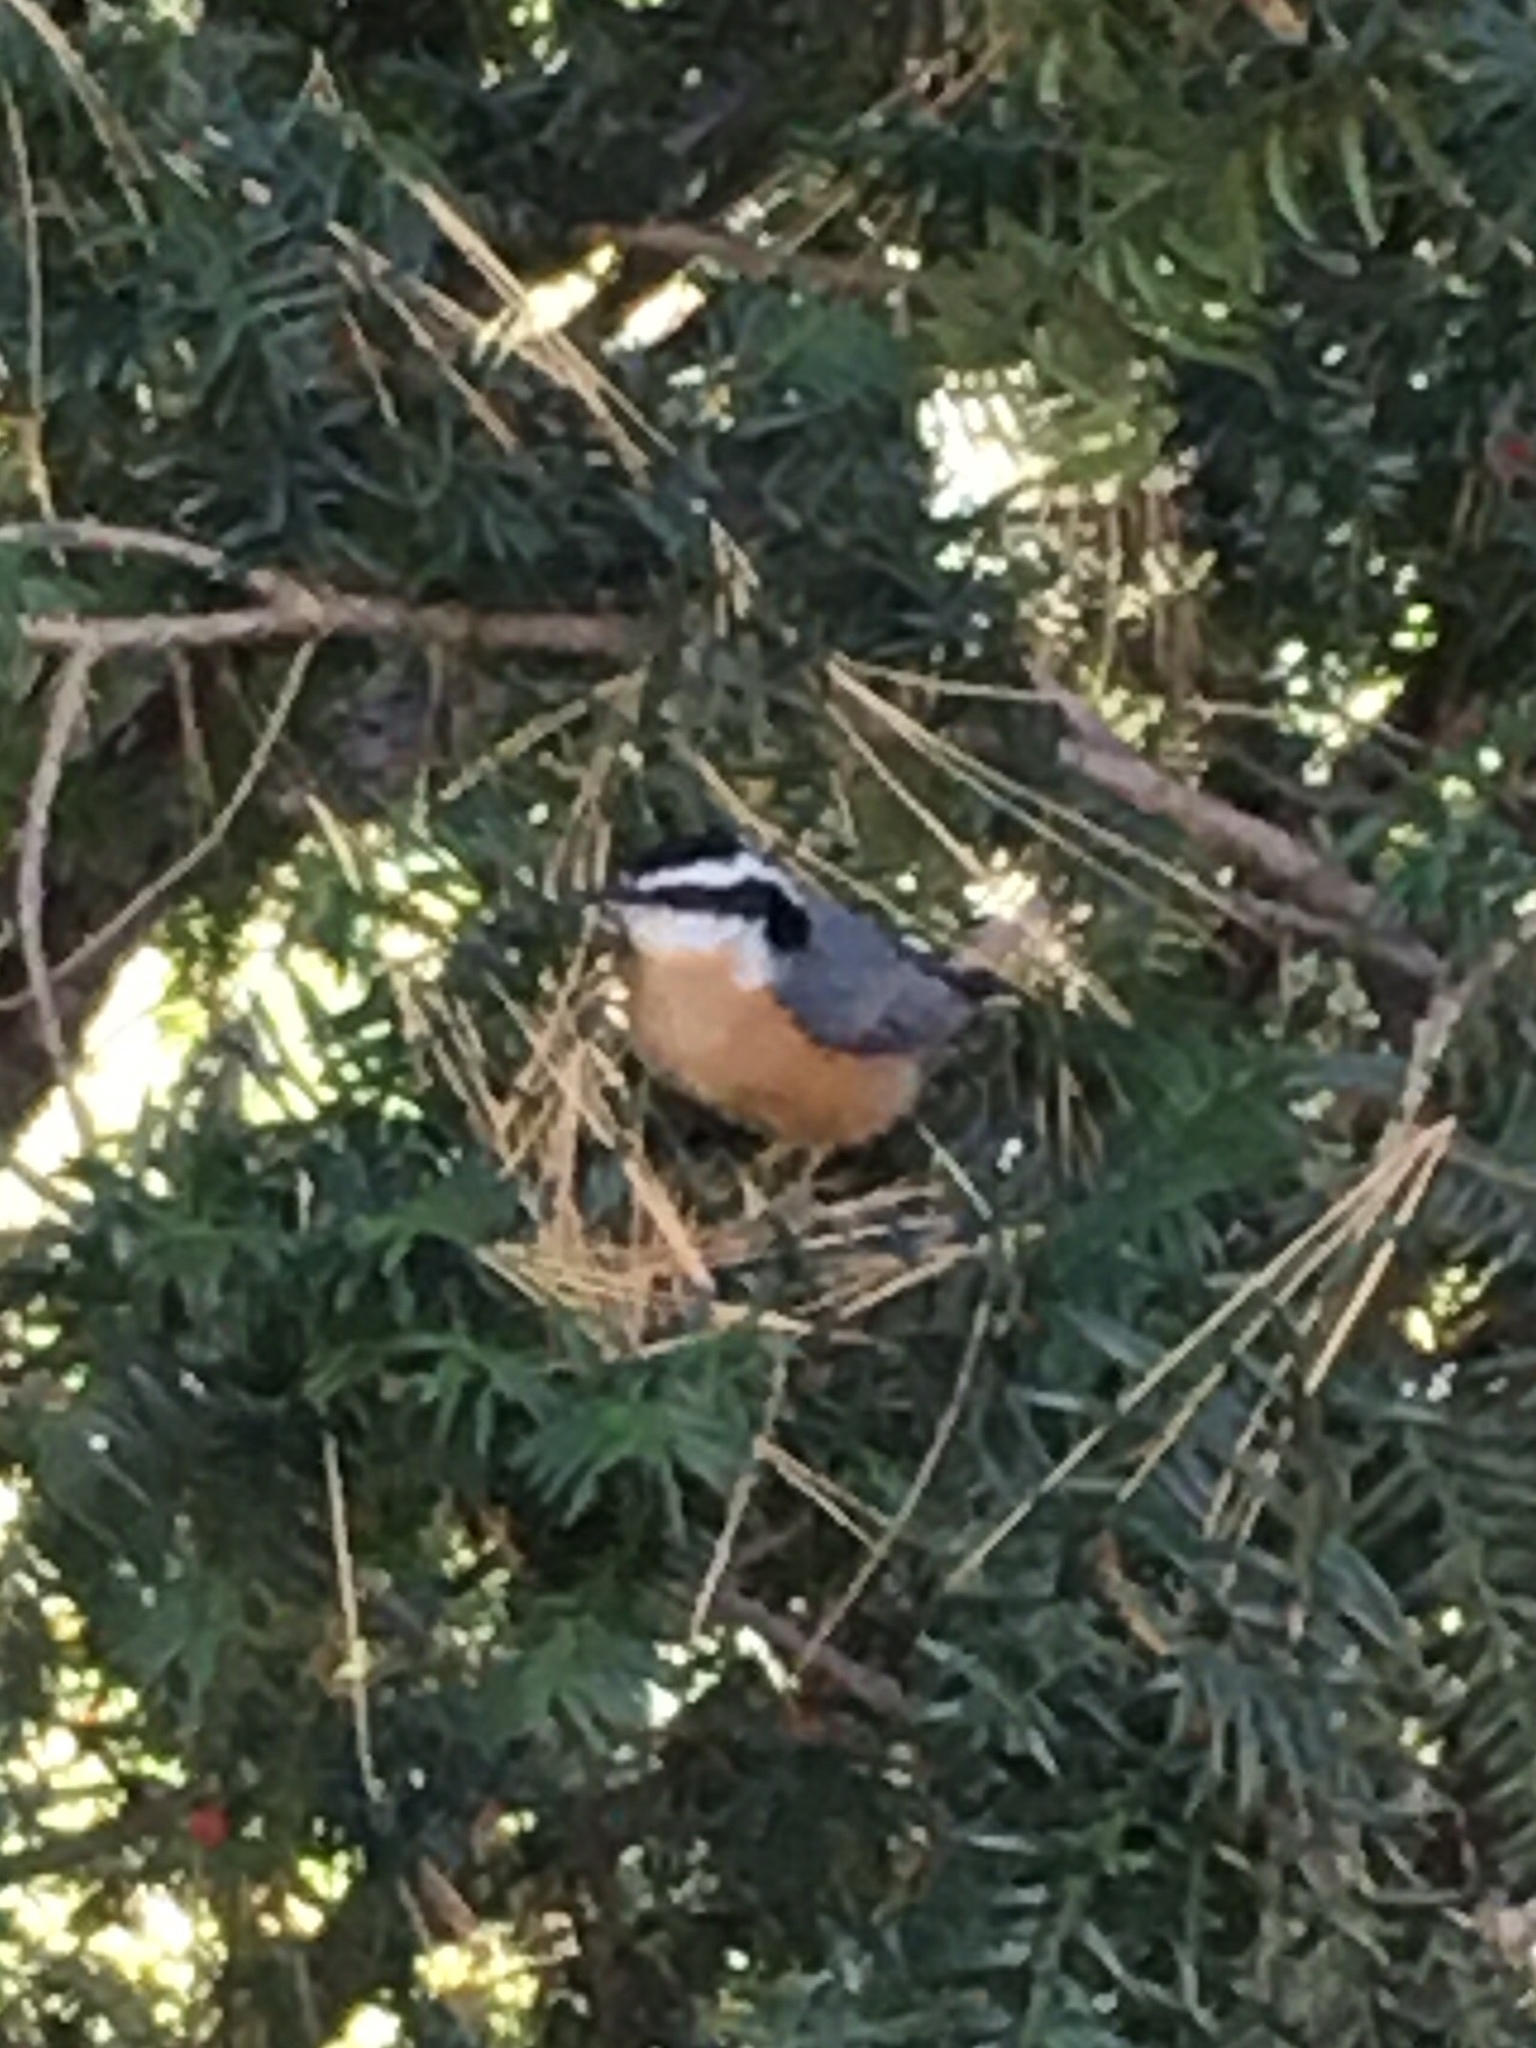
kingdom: Animalia
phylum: Chordata
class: Aves
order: Passeriformes
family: Sittidae
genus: Sitta
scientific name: Sitta canadensis
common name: Red-breasted nuthatch
